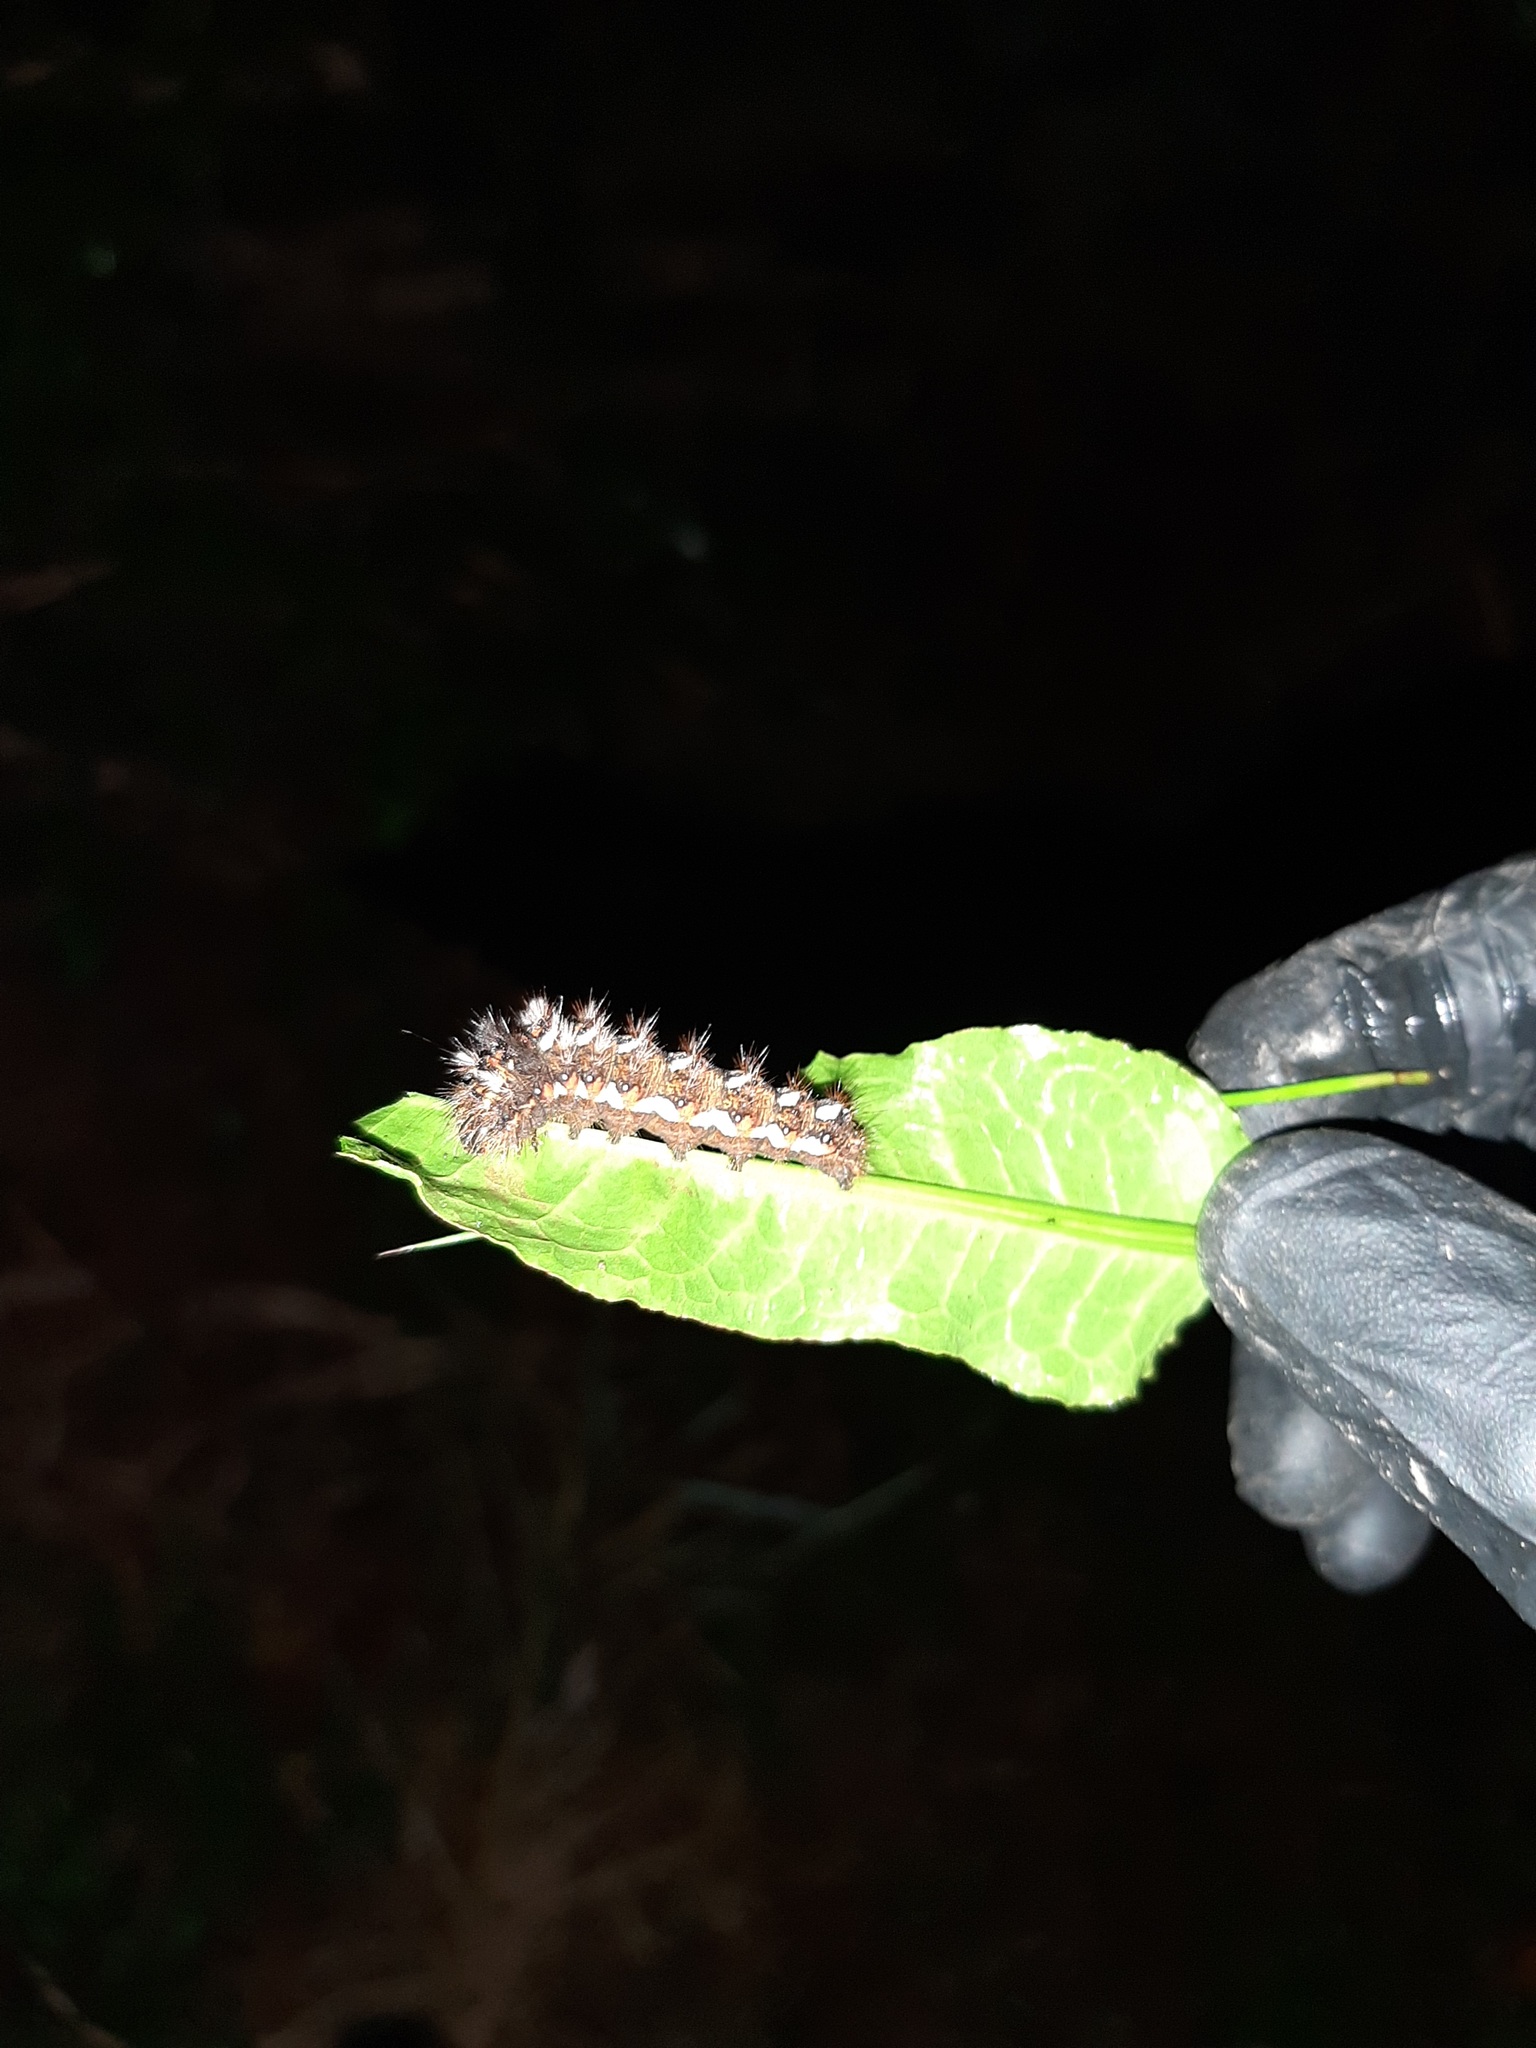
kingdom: Animalia
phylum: Arthropoda
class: Insecta
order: Lepidoptera
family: Noctuidae
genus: Acronicta
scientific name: Acronicta rumicis
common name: Knot grass
